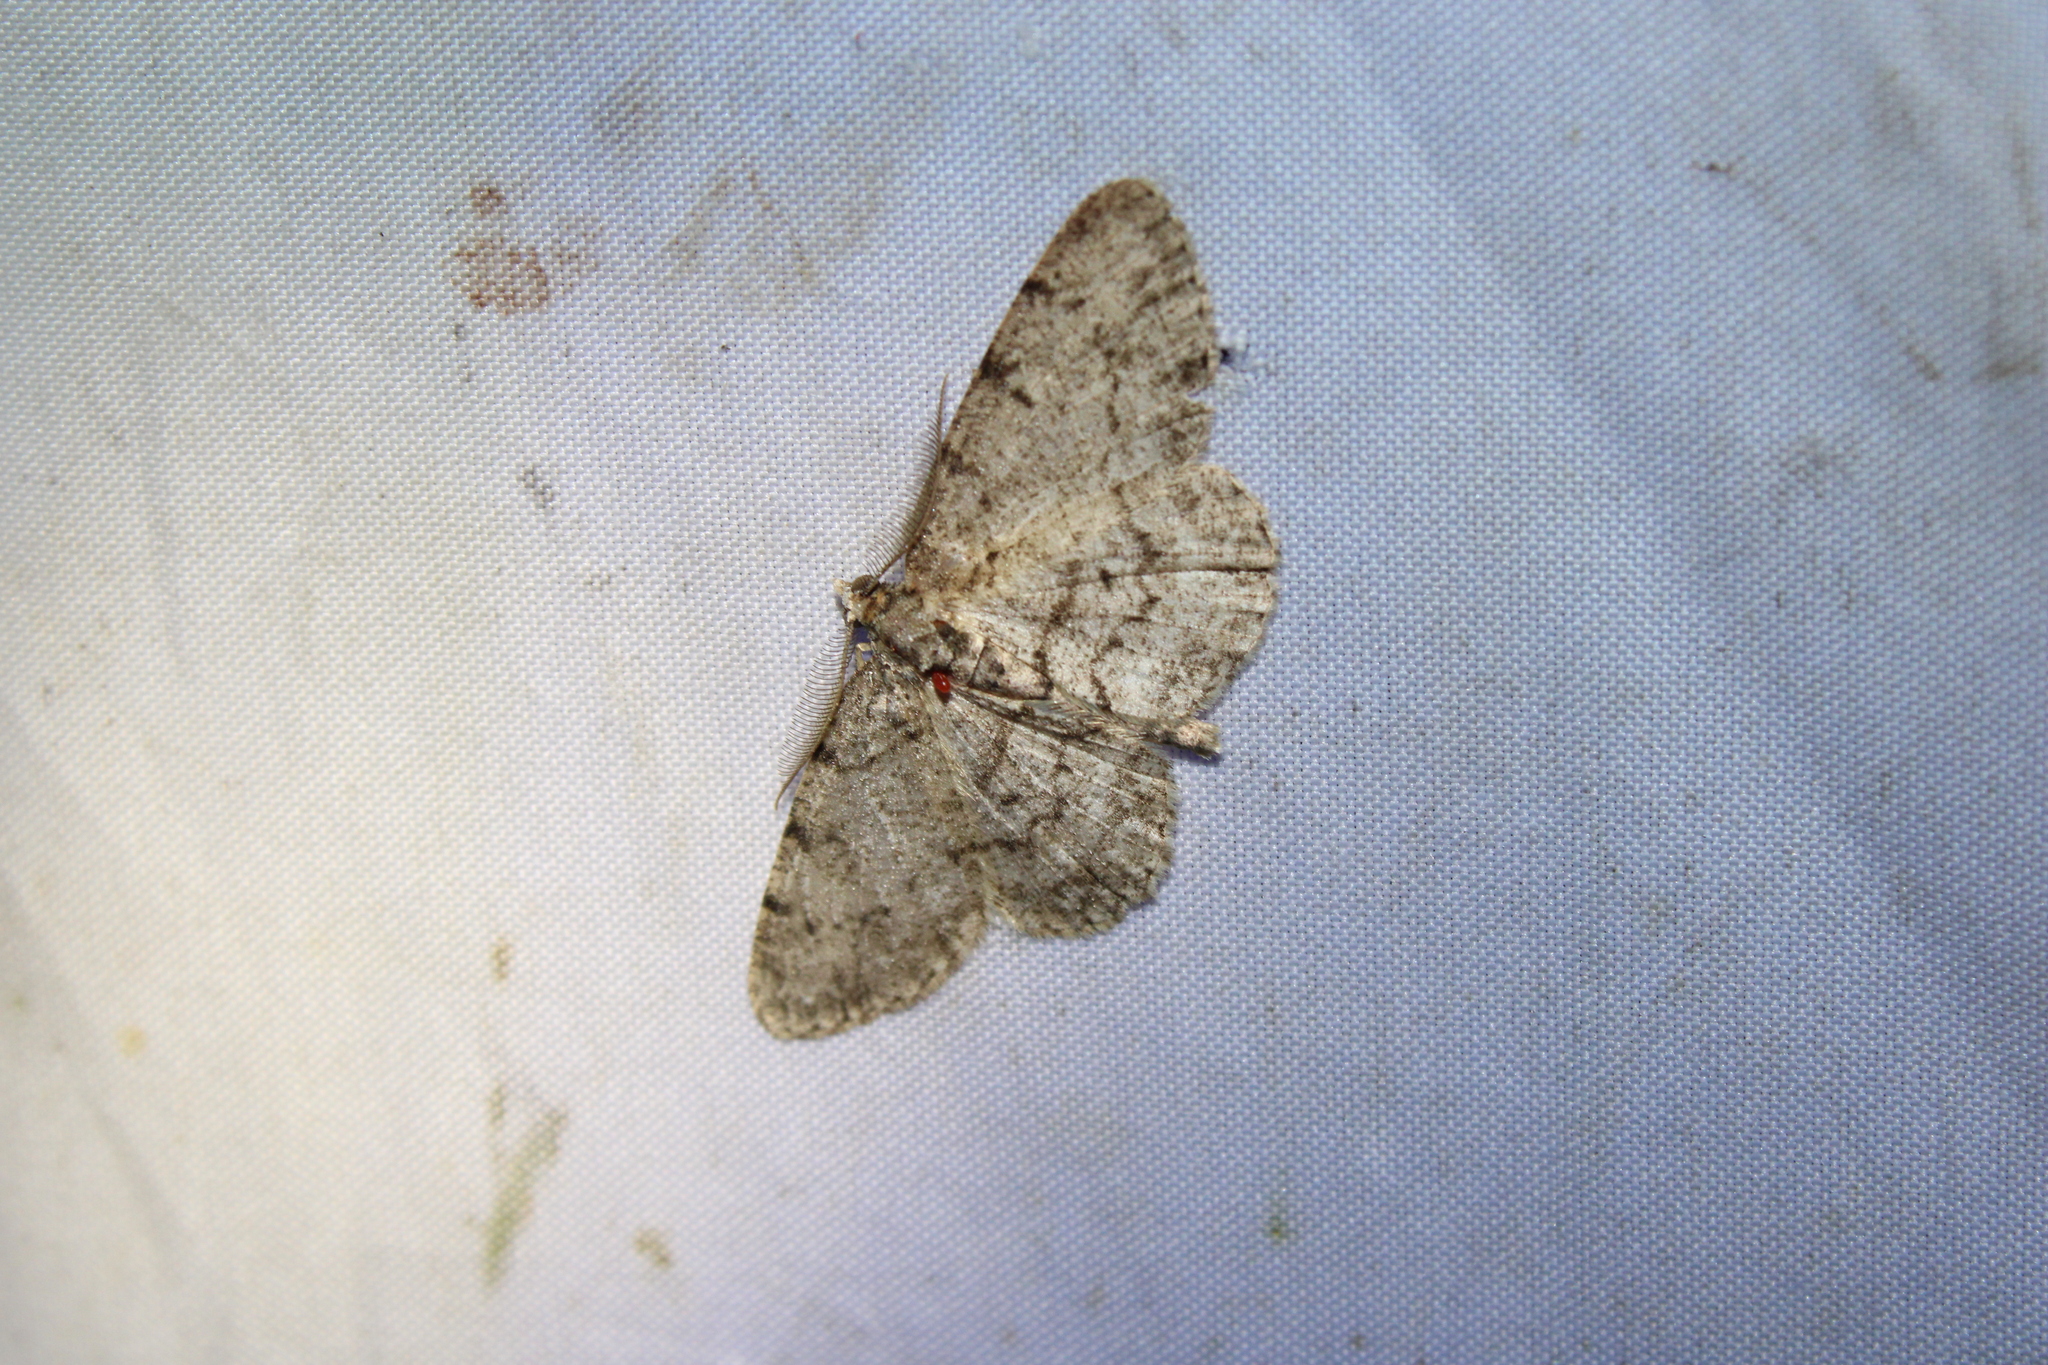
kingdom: Animalia
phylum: Arthropoda
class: Insecta
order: Lepidoptera
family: Geometridae
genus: Protoboarmia
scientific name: Protoboarmia porcelaria
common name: Porcelain gray
